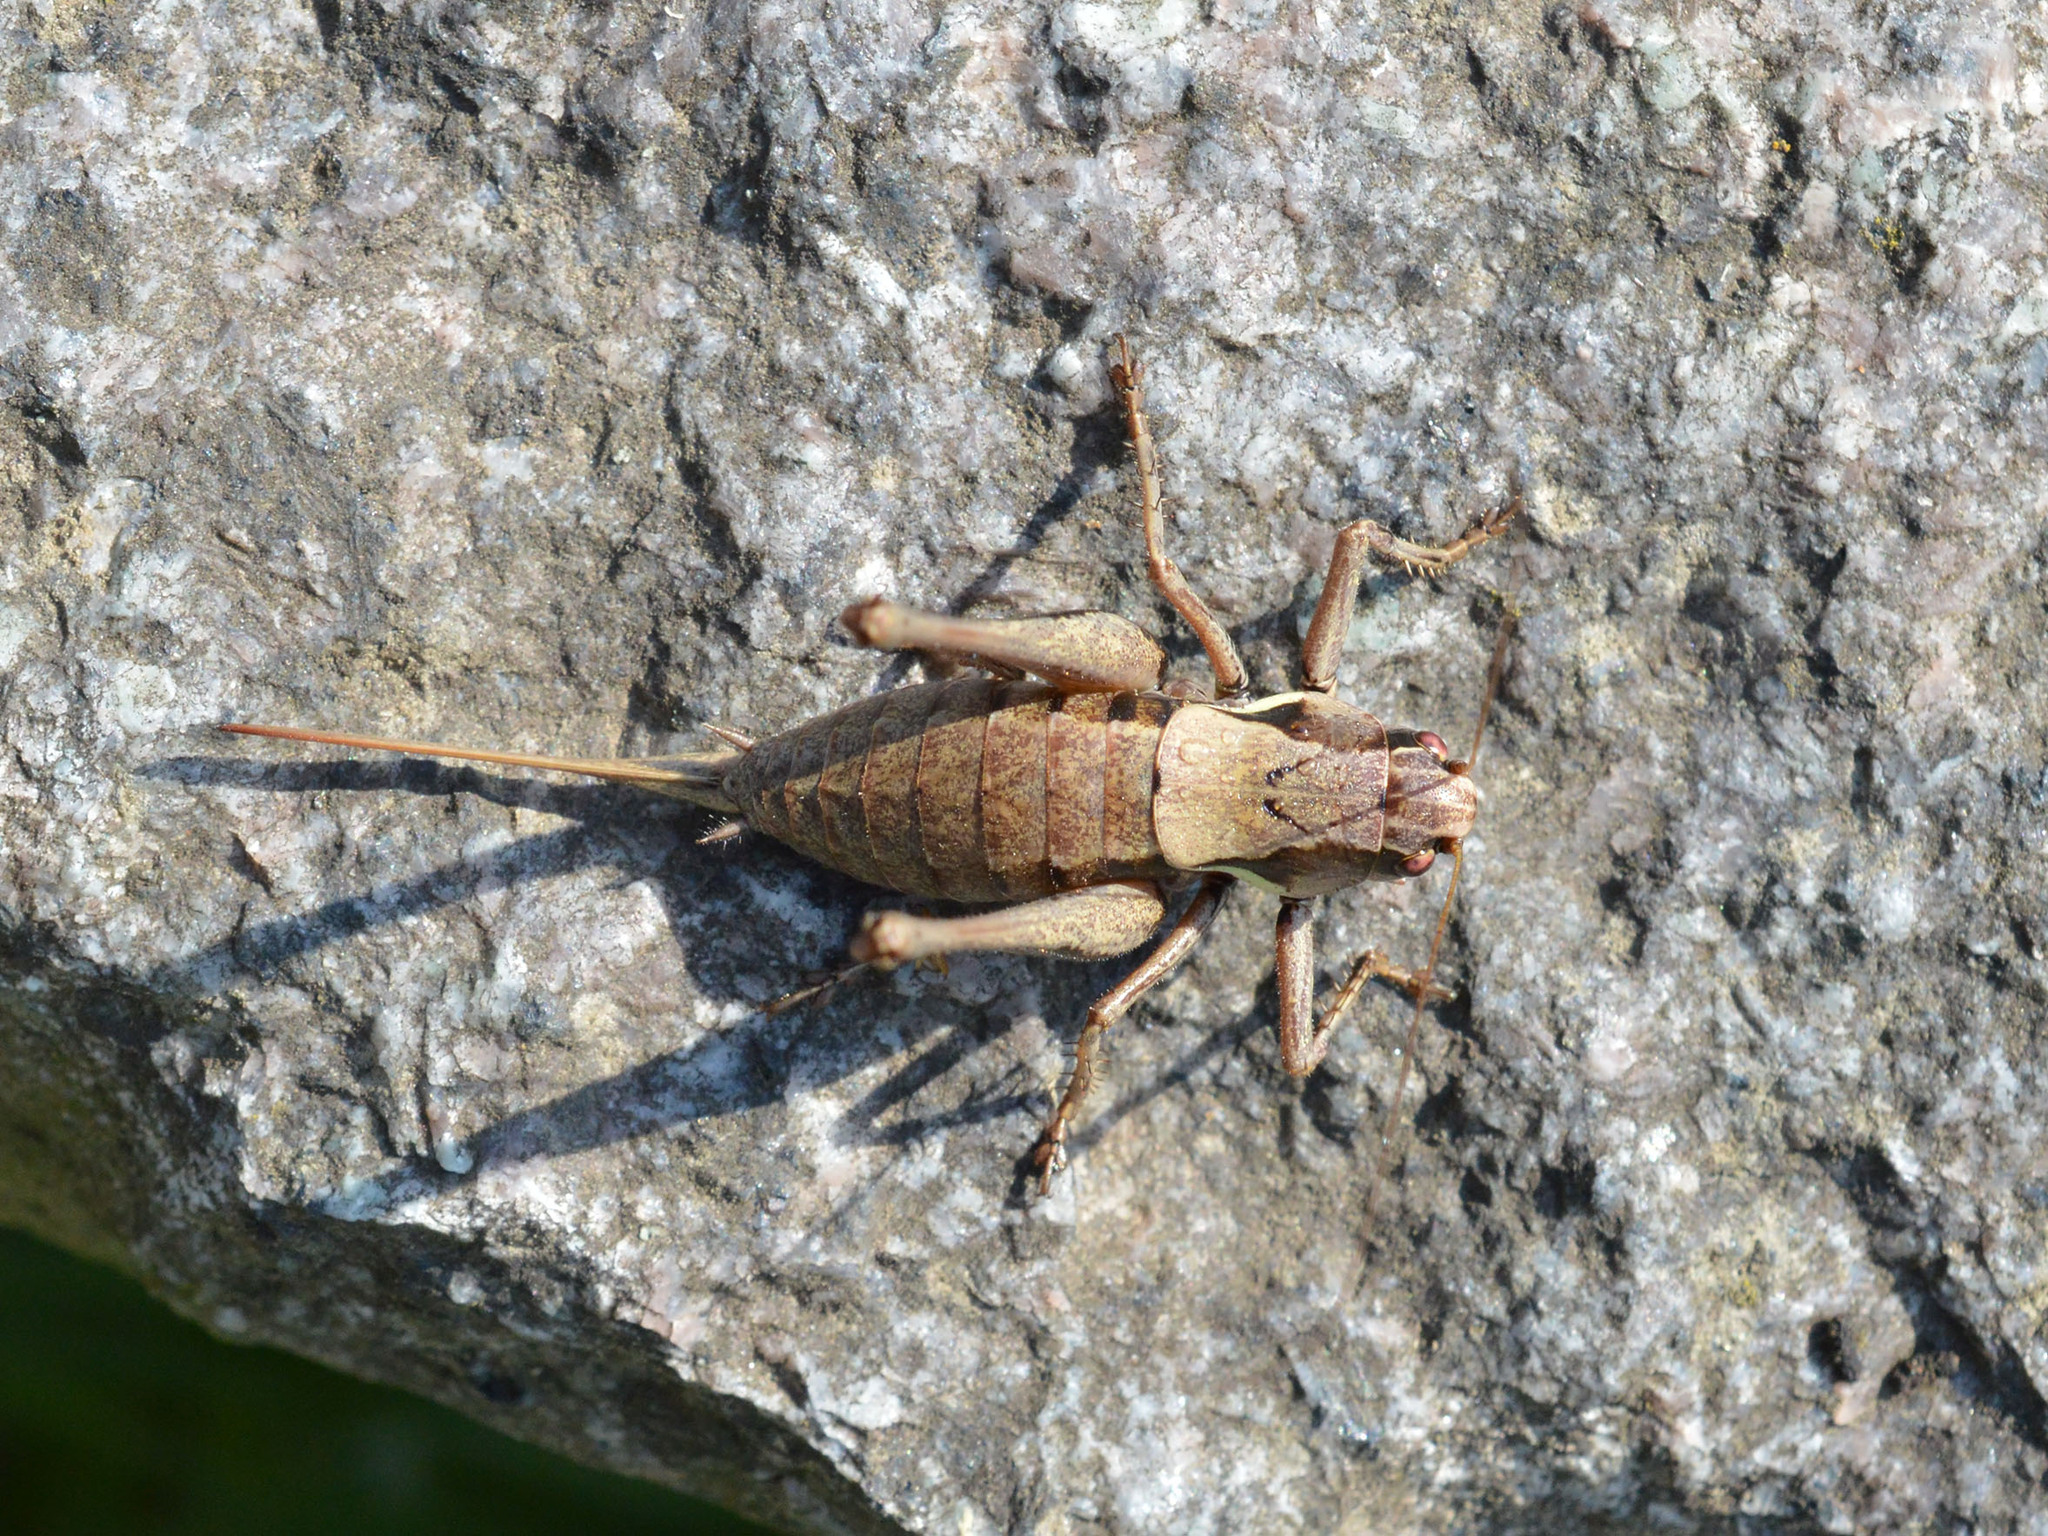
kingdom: Animalia
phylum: Arthropoda
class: Insecta
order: Orthoptera
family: Tettigoniidae
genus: Pholidoptera
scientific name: Pholidoptera aptera
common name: Alpine dark bush-cricket
